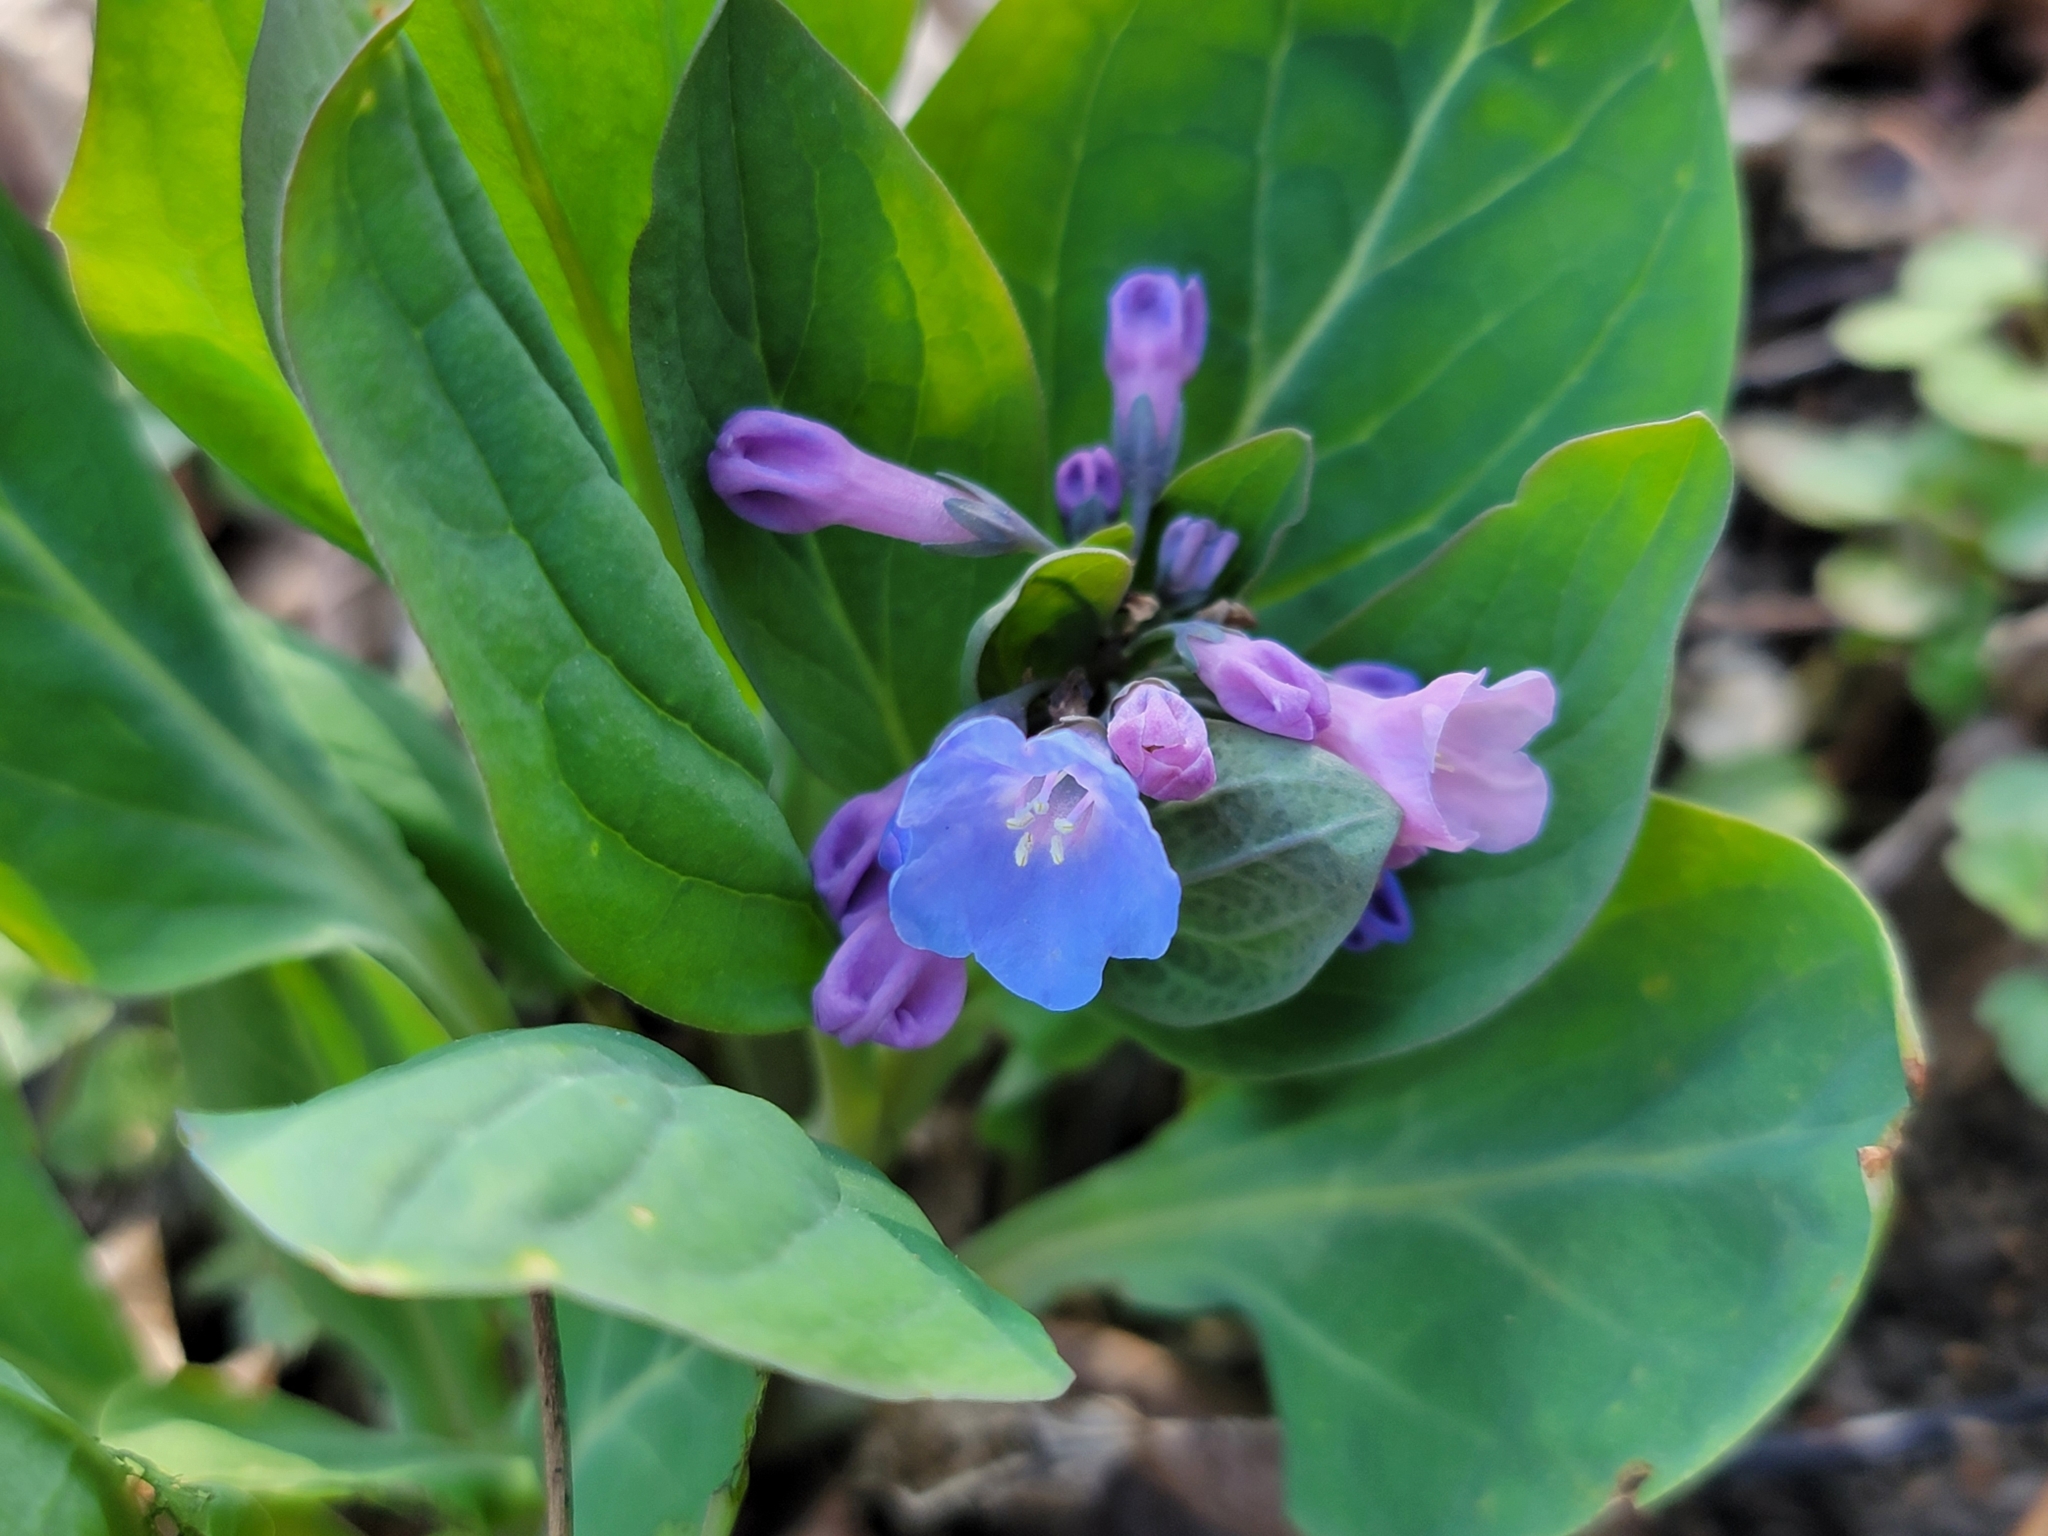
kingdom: Plantae
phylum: Tracheophyta
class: Magnoliopsida
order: Boraginales
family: Boraginaceae
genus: Mertensia
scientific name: Mertensia virginica
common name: Virginia bluebells
